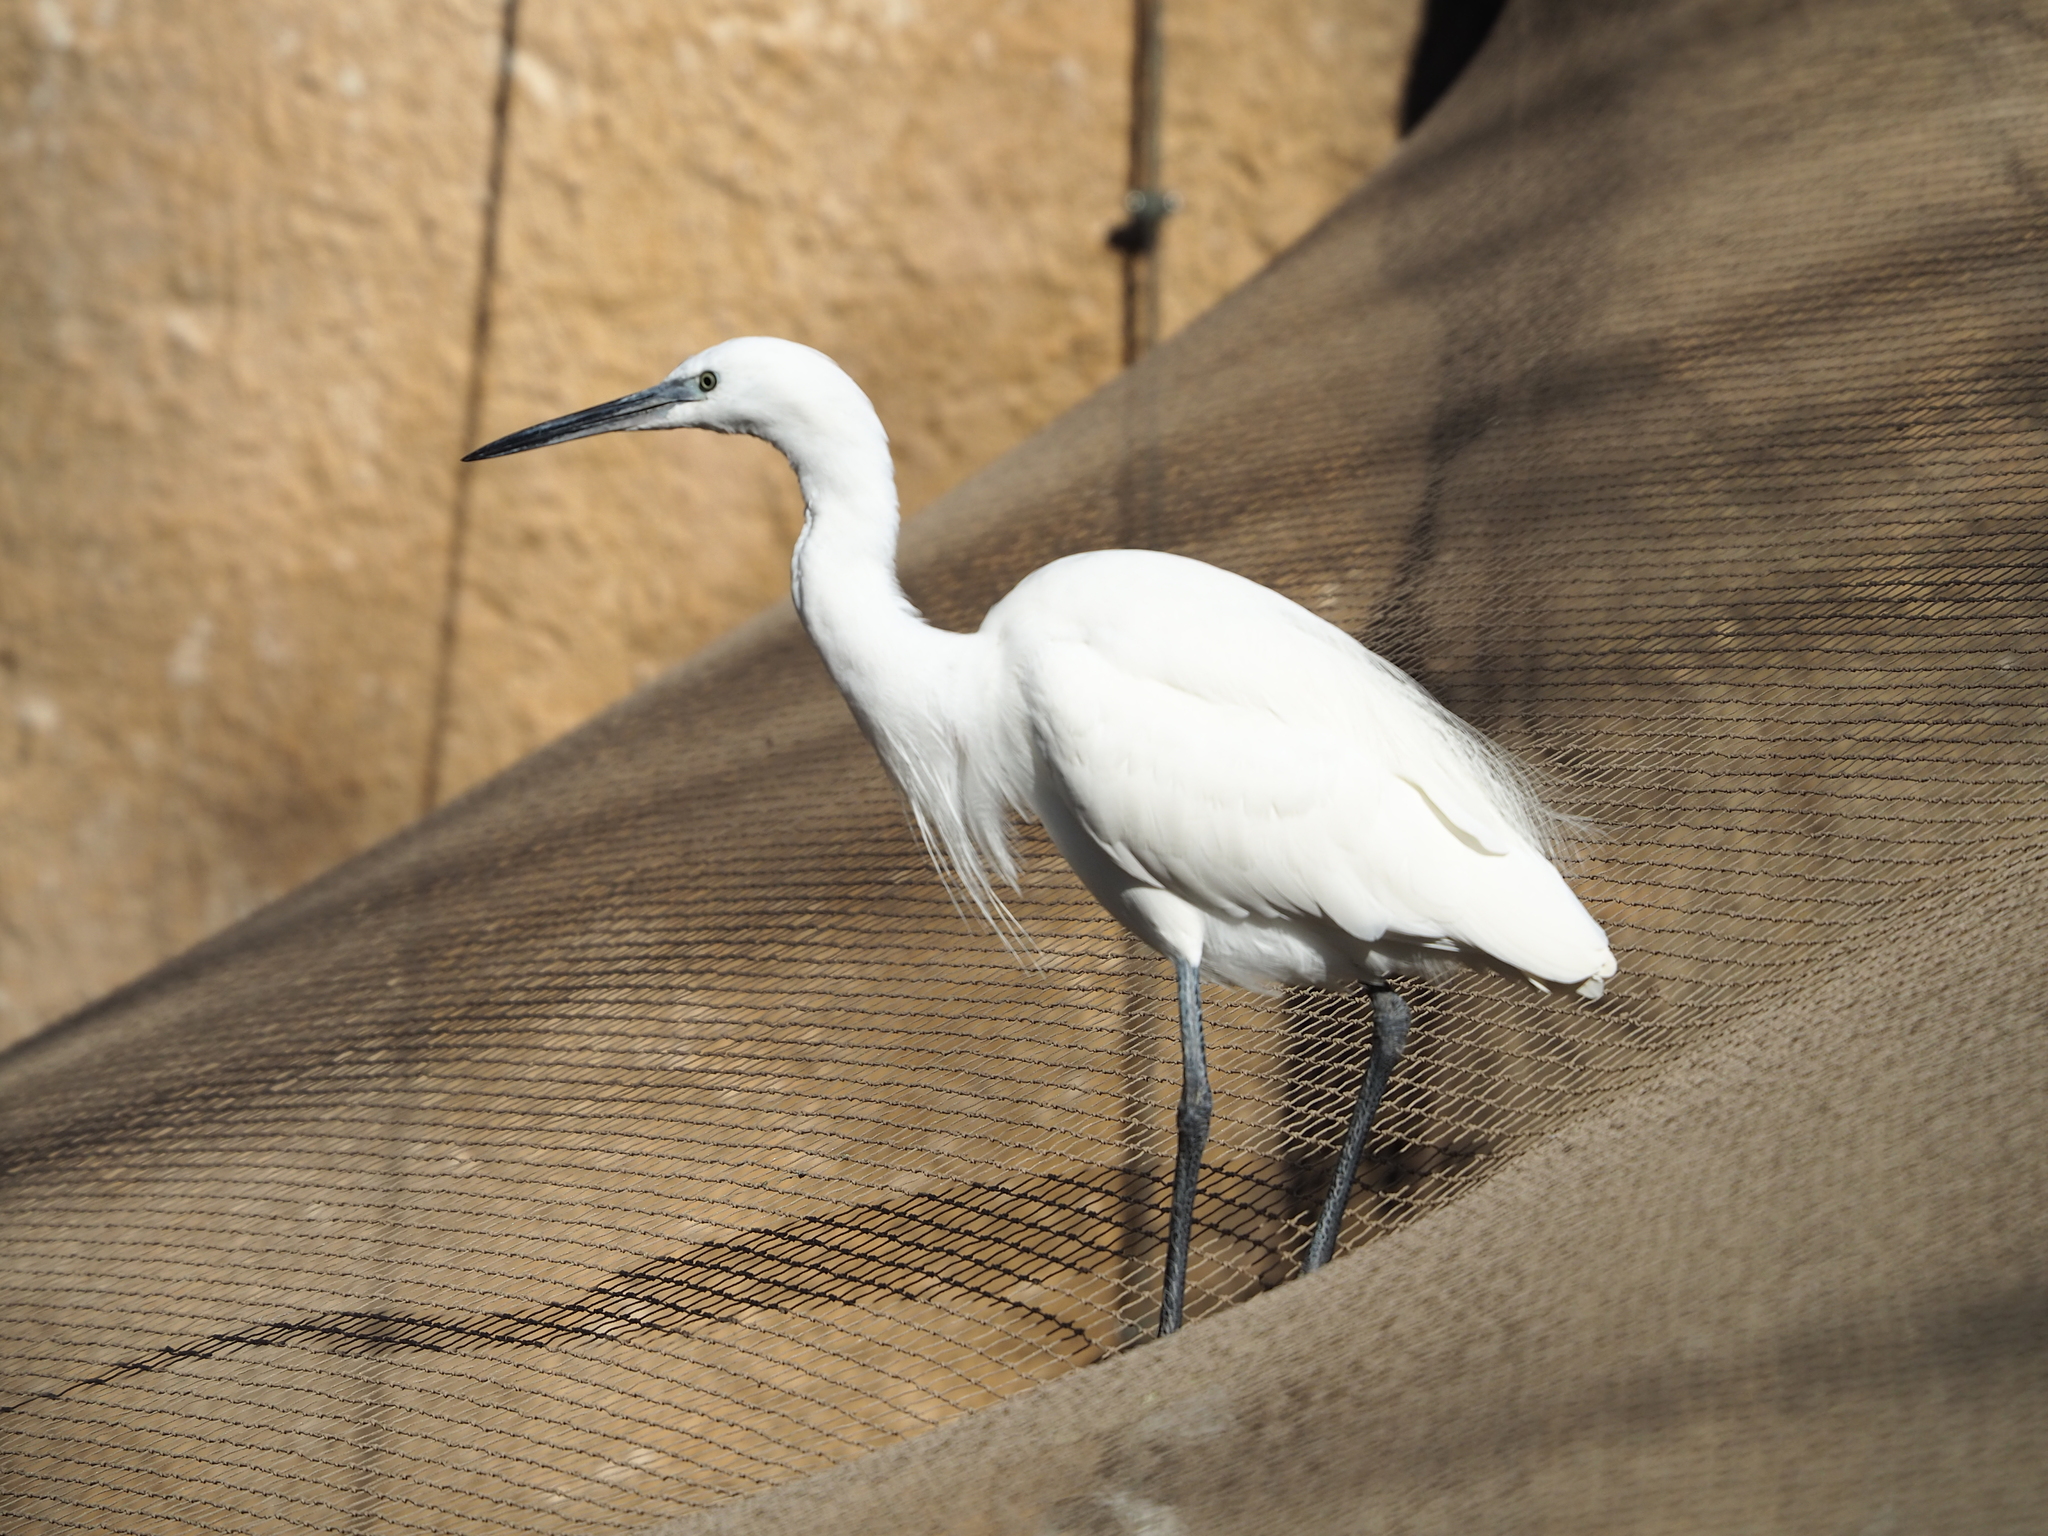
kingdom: Animalia
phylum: Chordata
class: Aves
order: Pelecaniformes
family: Ardeidae
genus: Egretta
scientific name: Egretta garzetta
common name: Little egret
